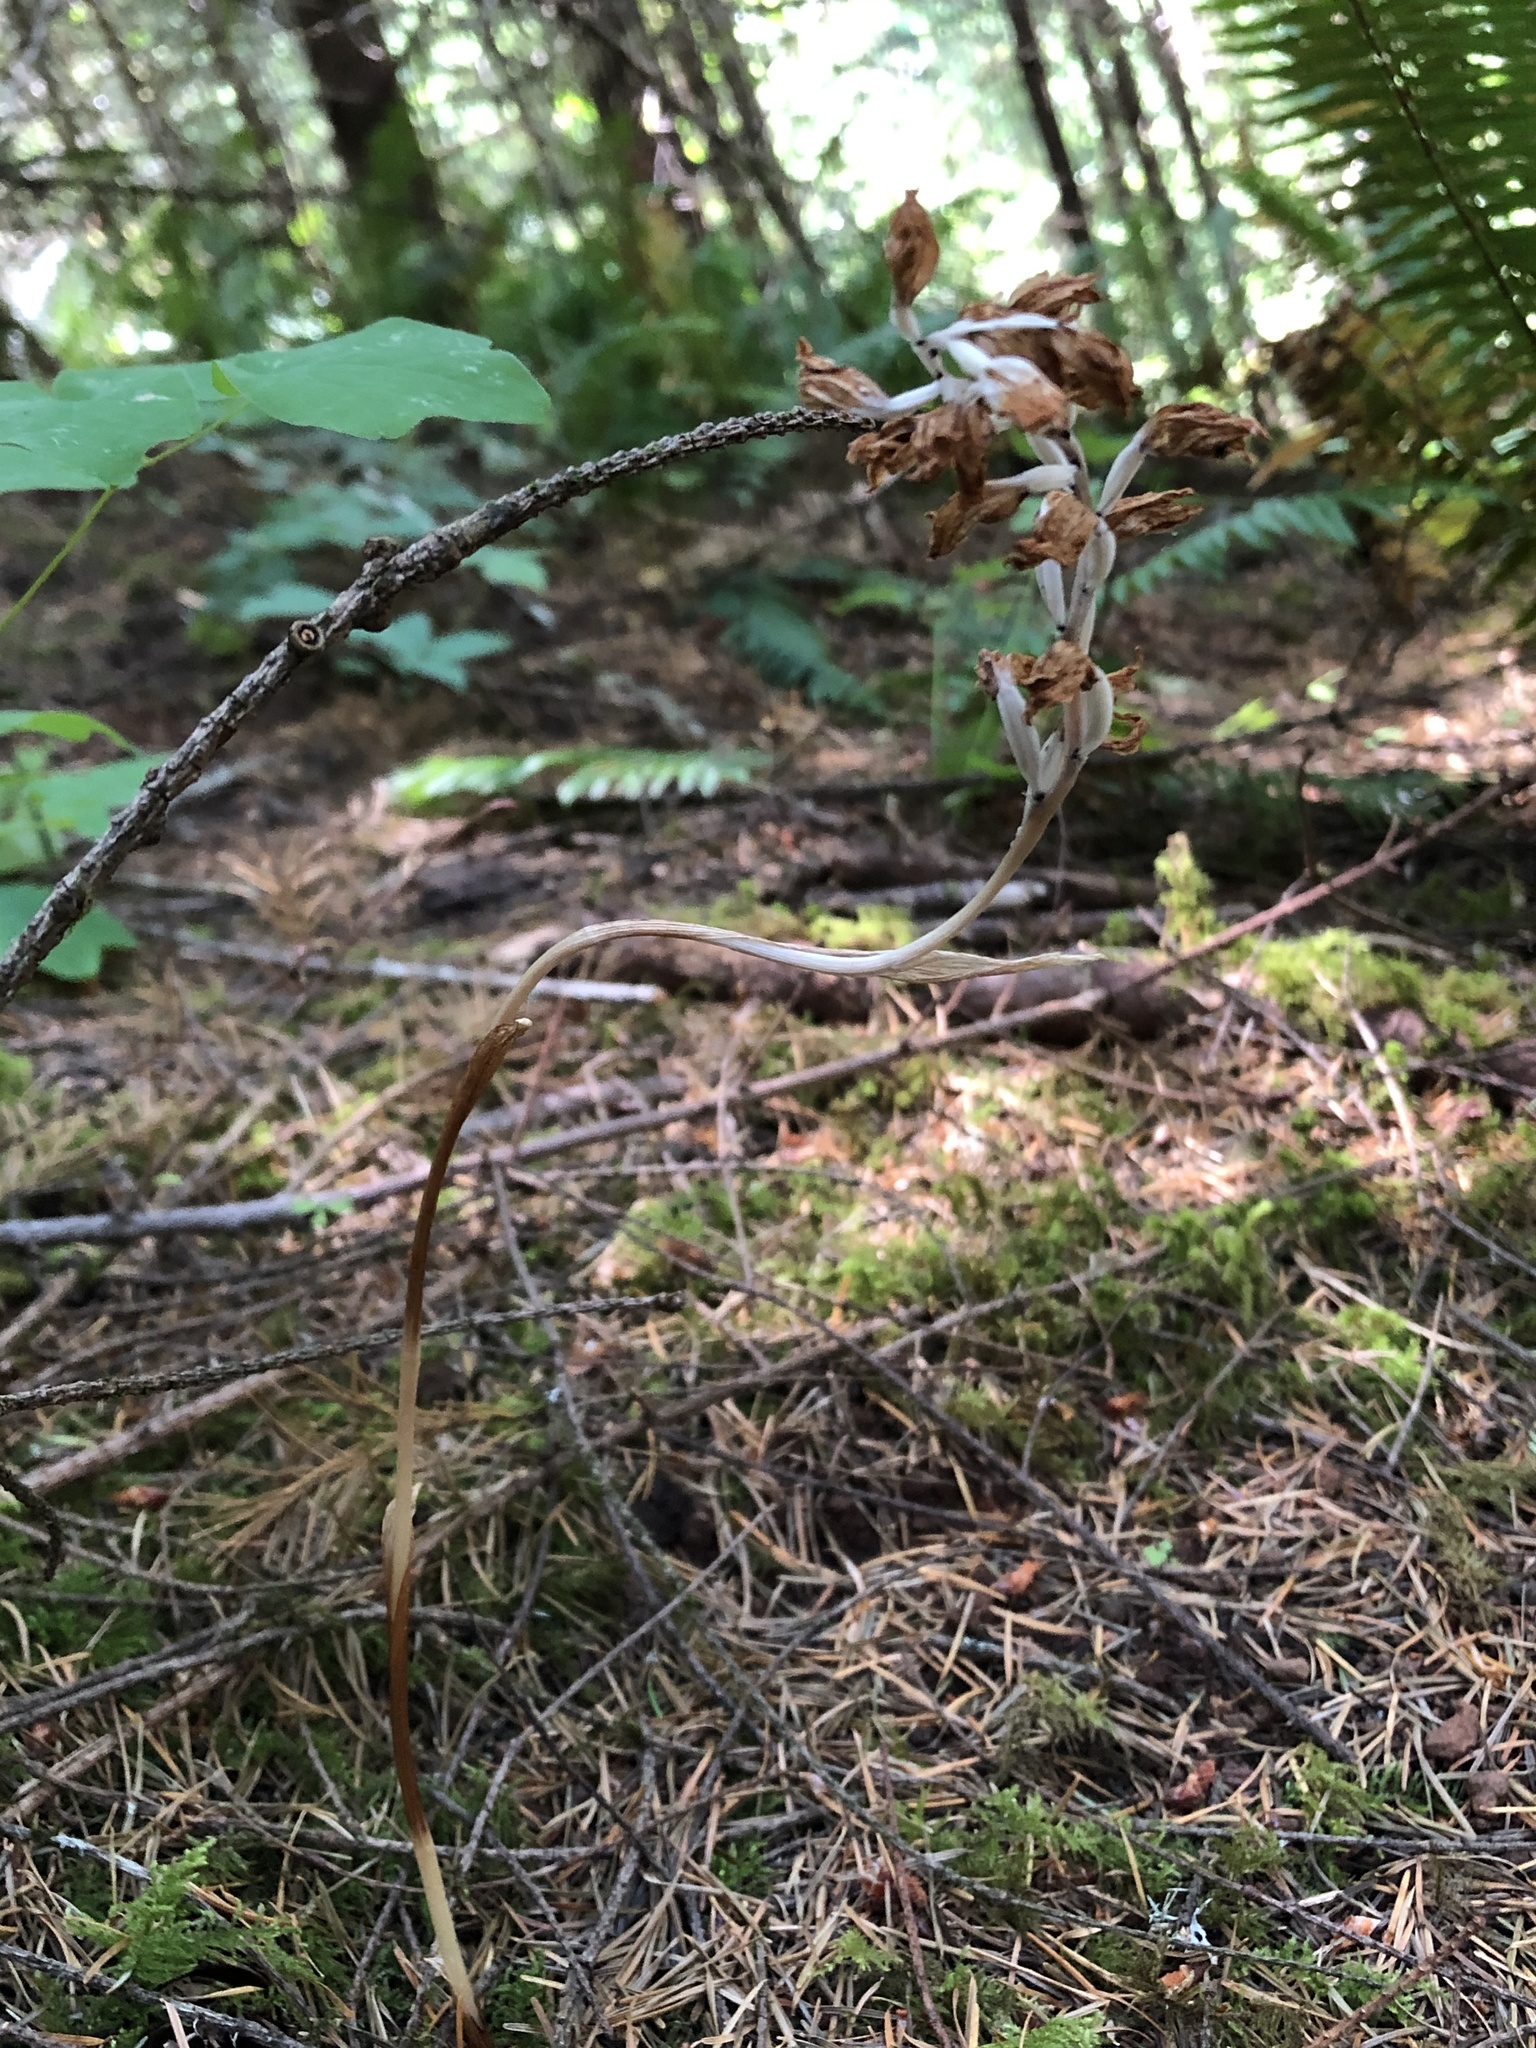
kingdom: Plantae
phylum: Tracheophyta
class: Liliopsida
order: Asparagales
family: Orchidaceae
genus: Cephalanthera
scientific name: Cephalanthera austiniae
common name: Phantom orchid
